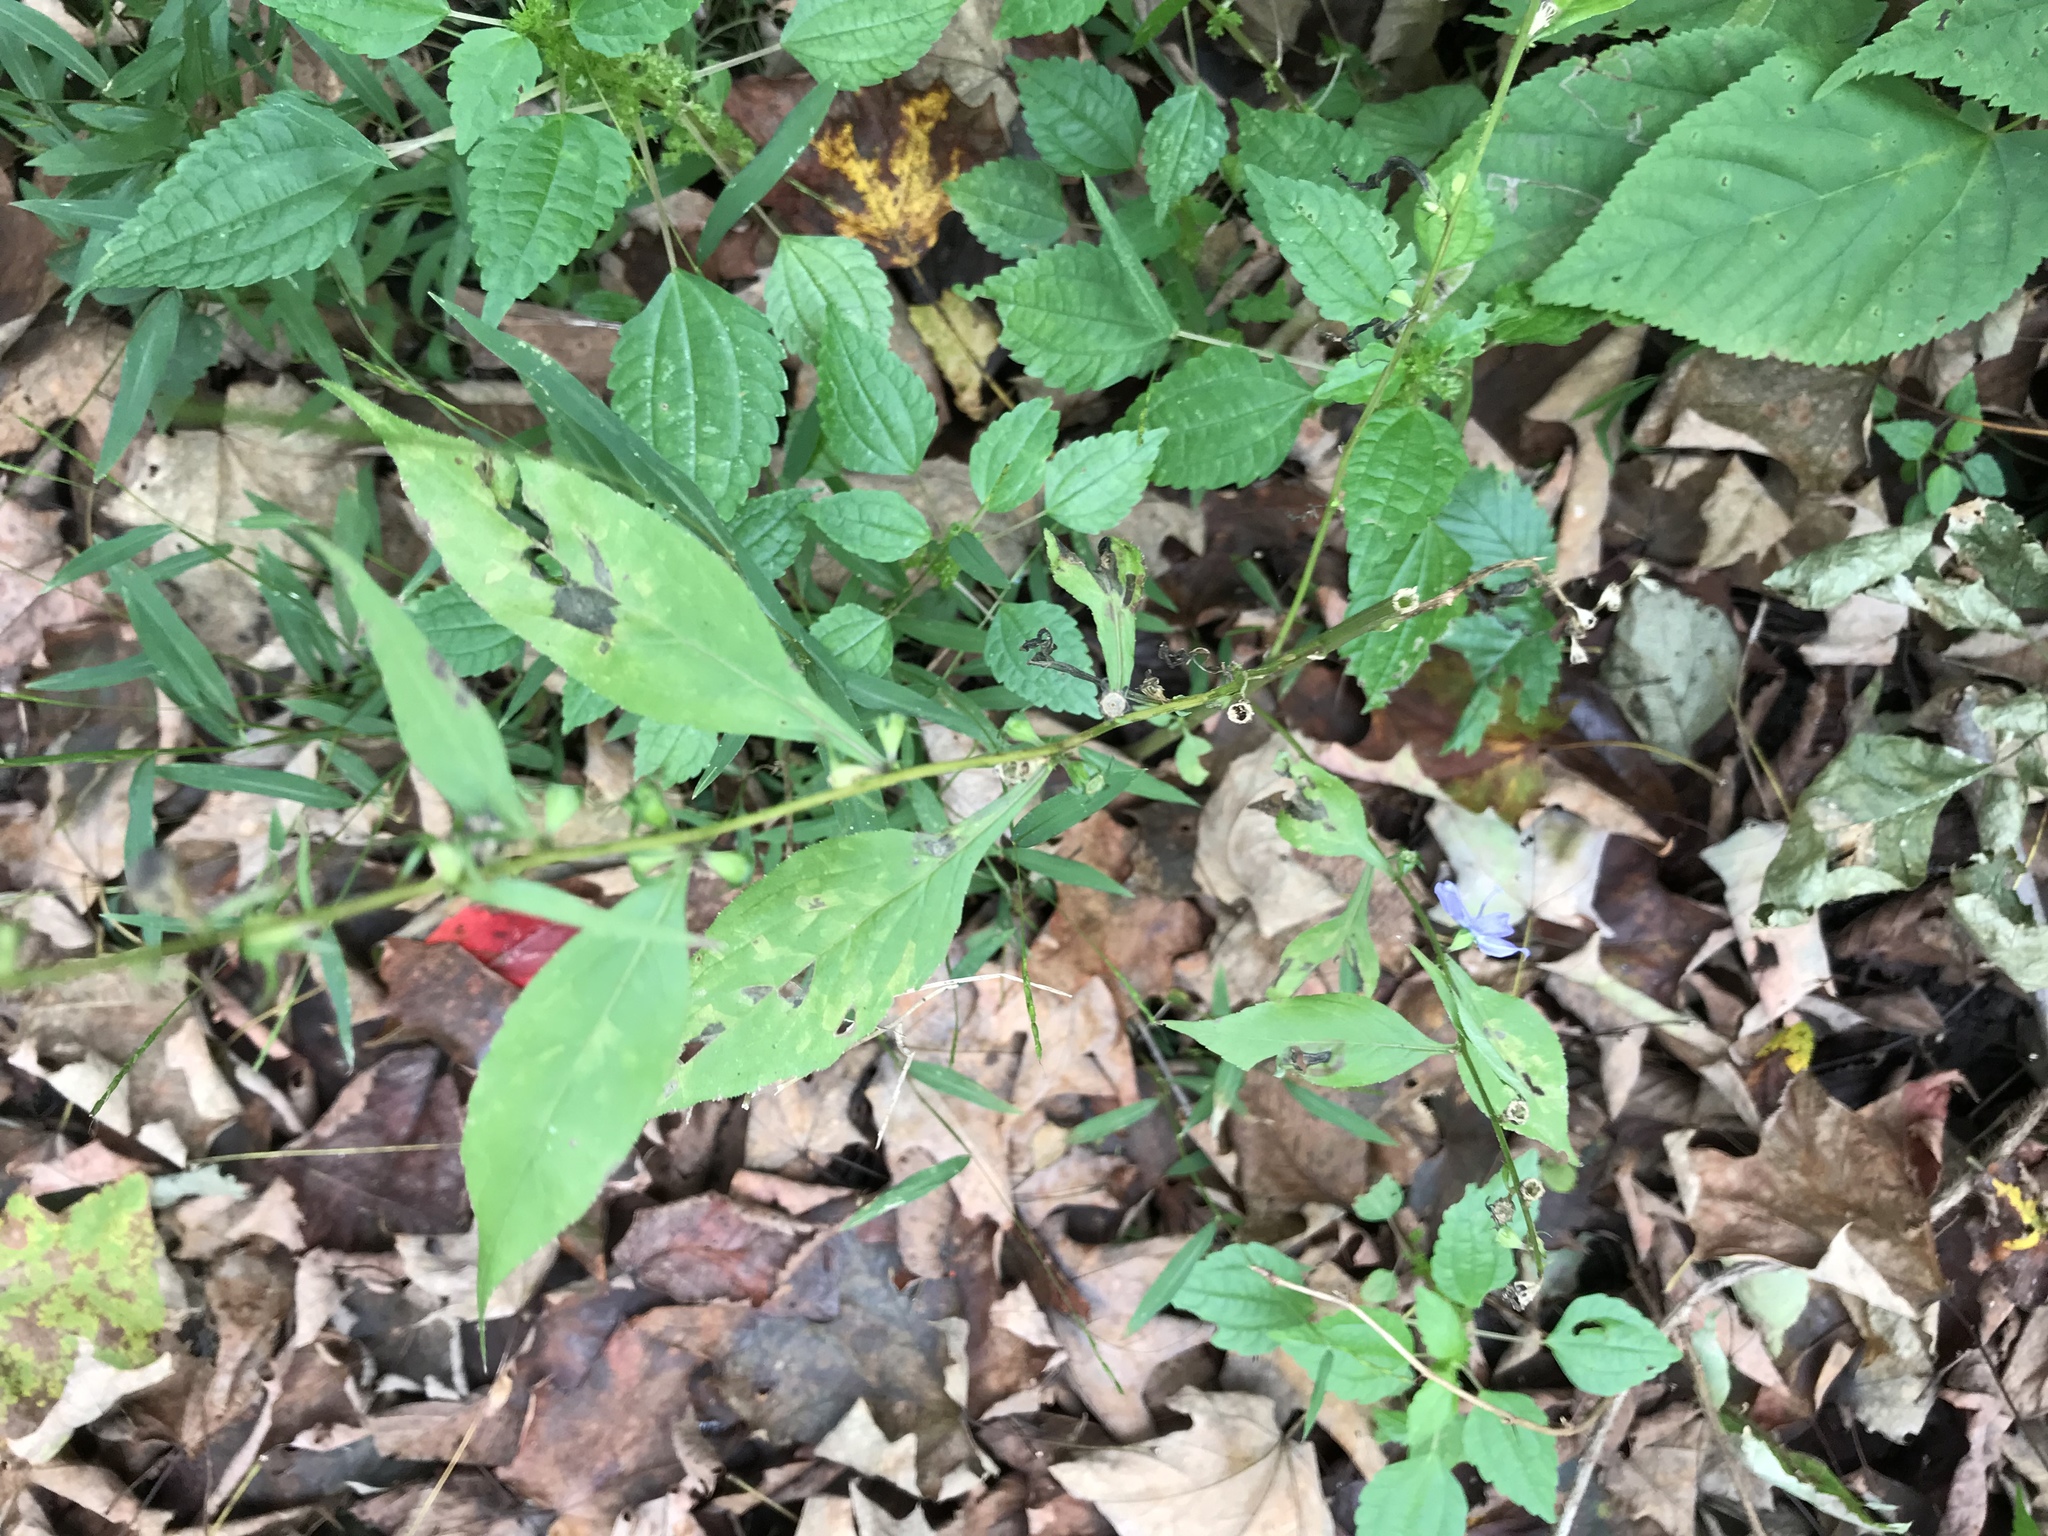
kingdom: Plantae
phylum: Tracheophyta
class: Magnoliopsida
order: Asterales
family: Campanulaceae
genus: Campanulastrum
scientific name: Campanulastrum americanum
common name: American bellflower
